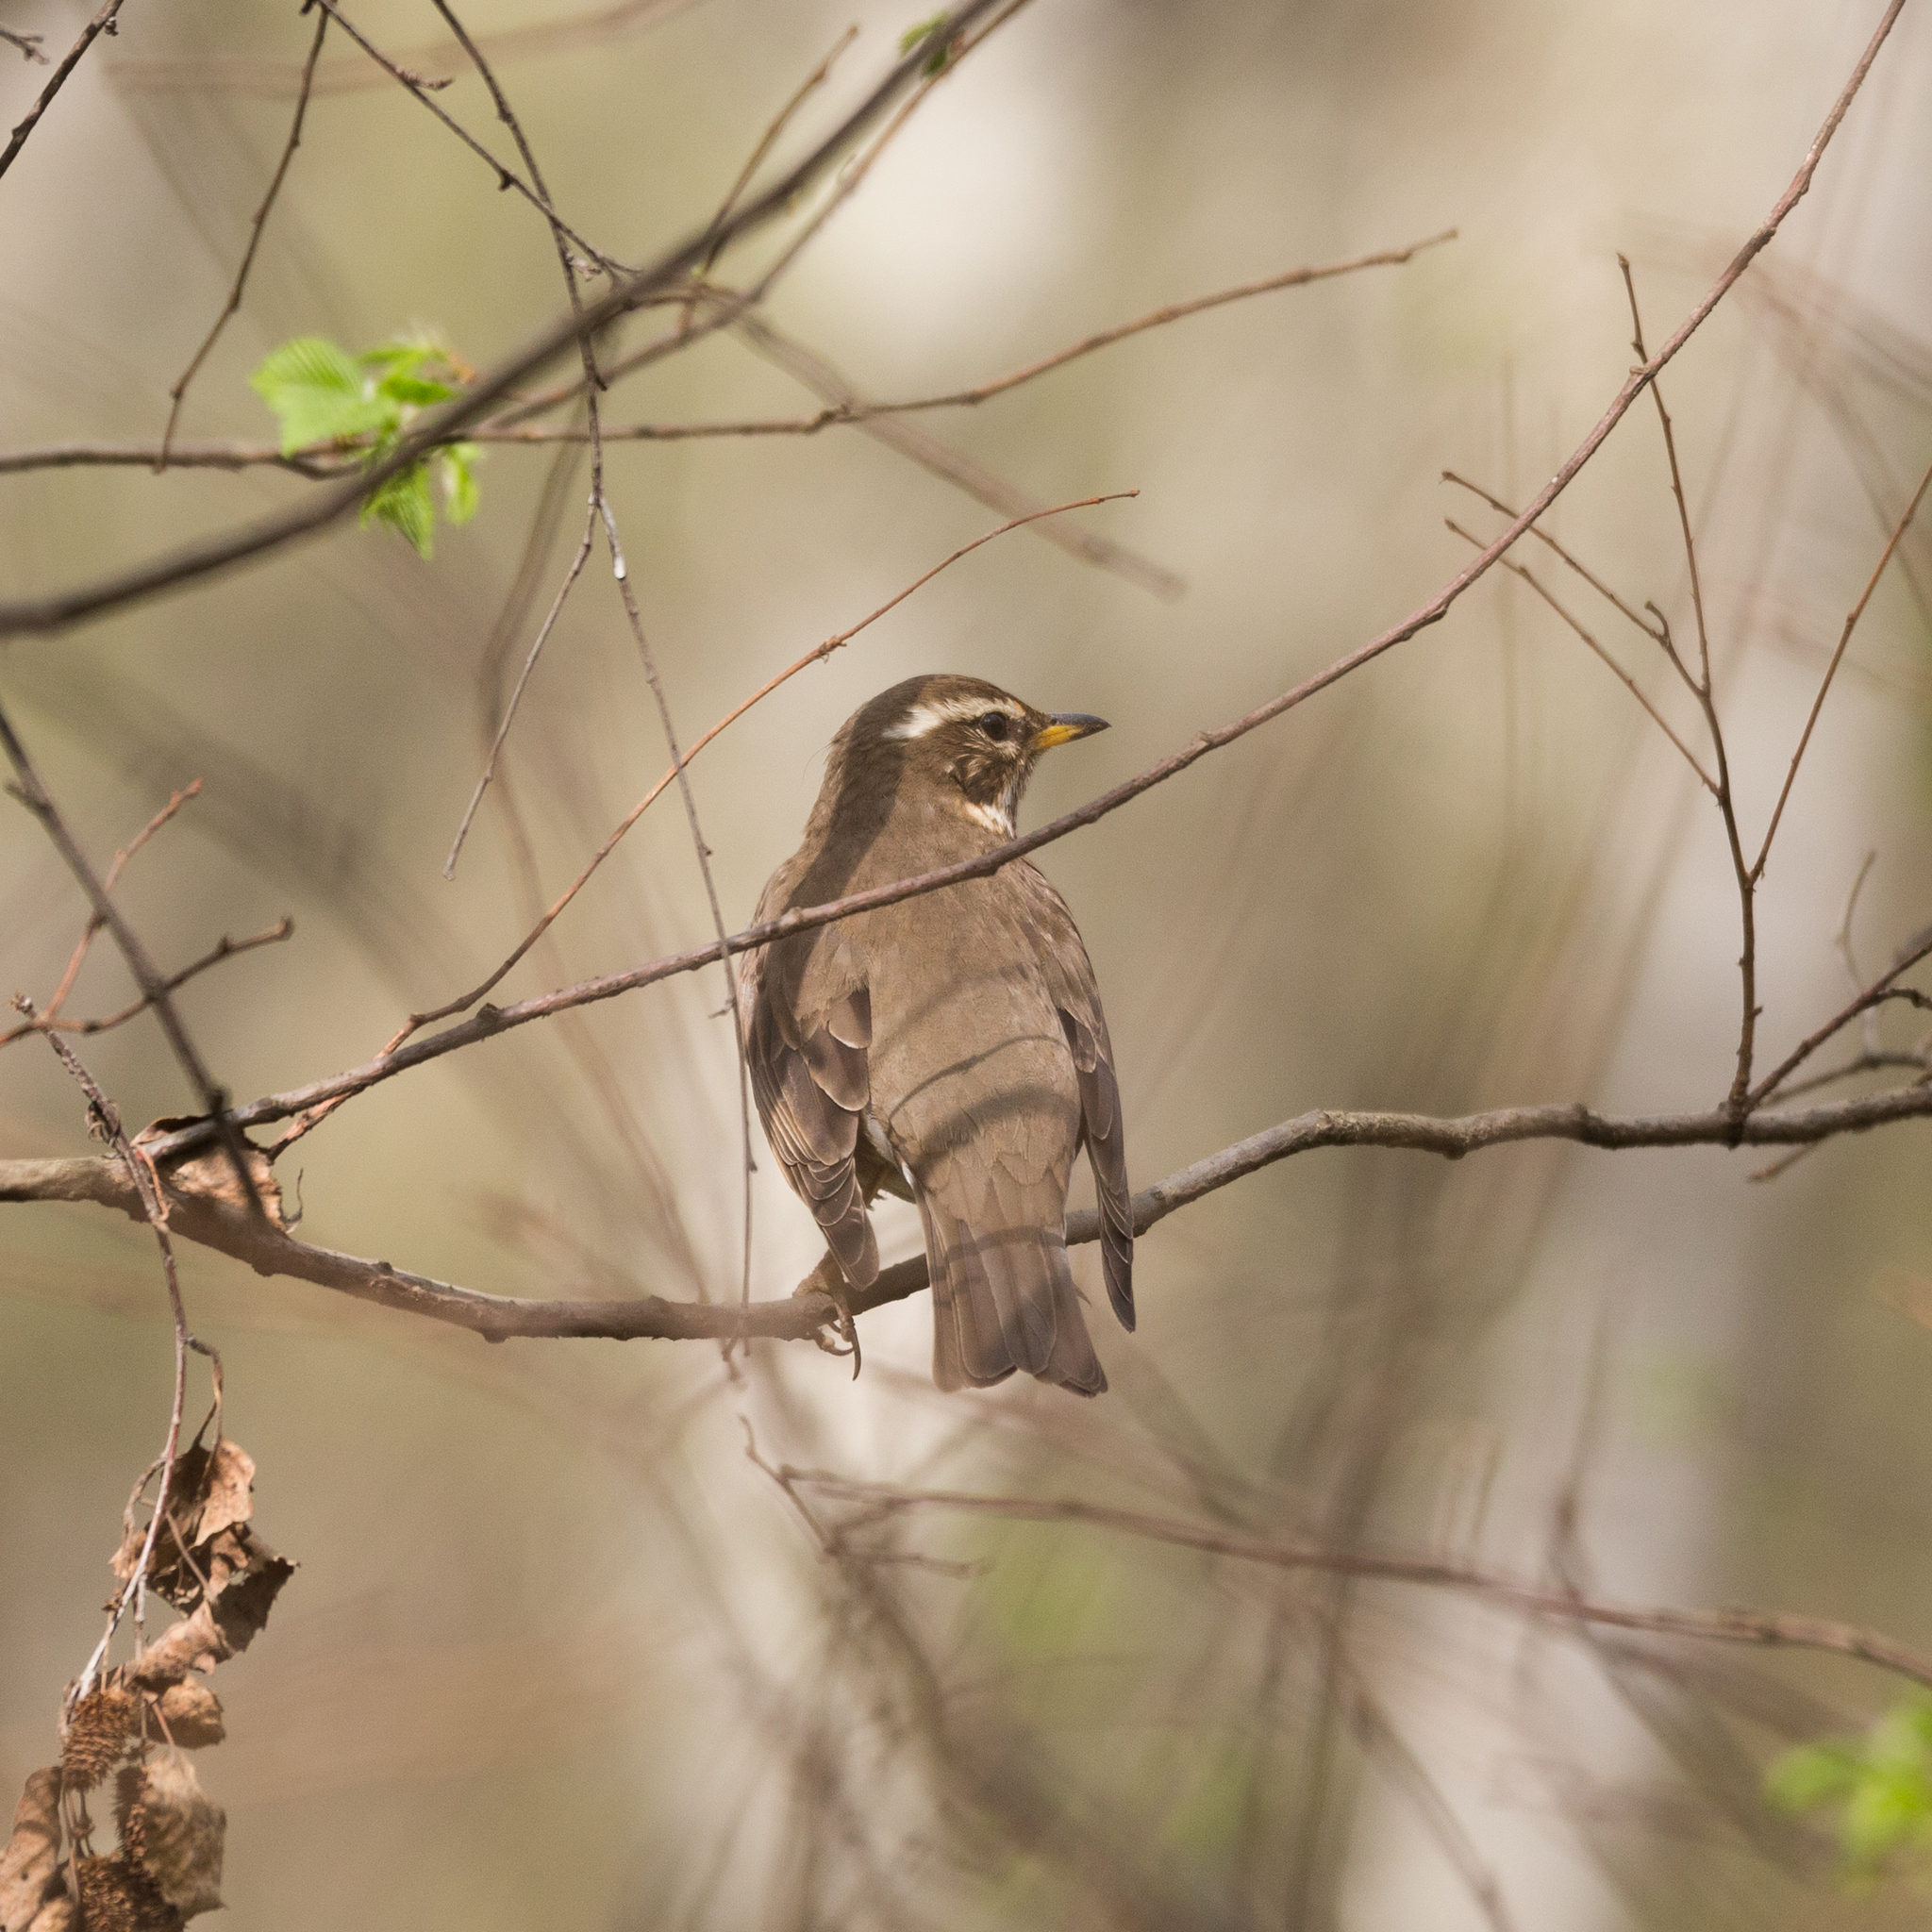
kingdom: Animalia
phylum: Chordata
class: Aves
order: Passeriformes
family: Turdidae
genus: Turdus
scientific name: Turdus iliacus
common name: Redwing
